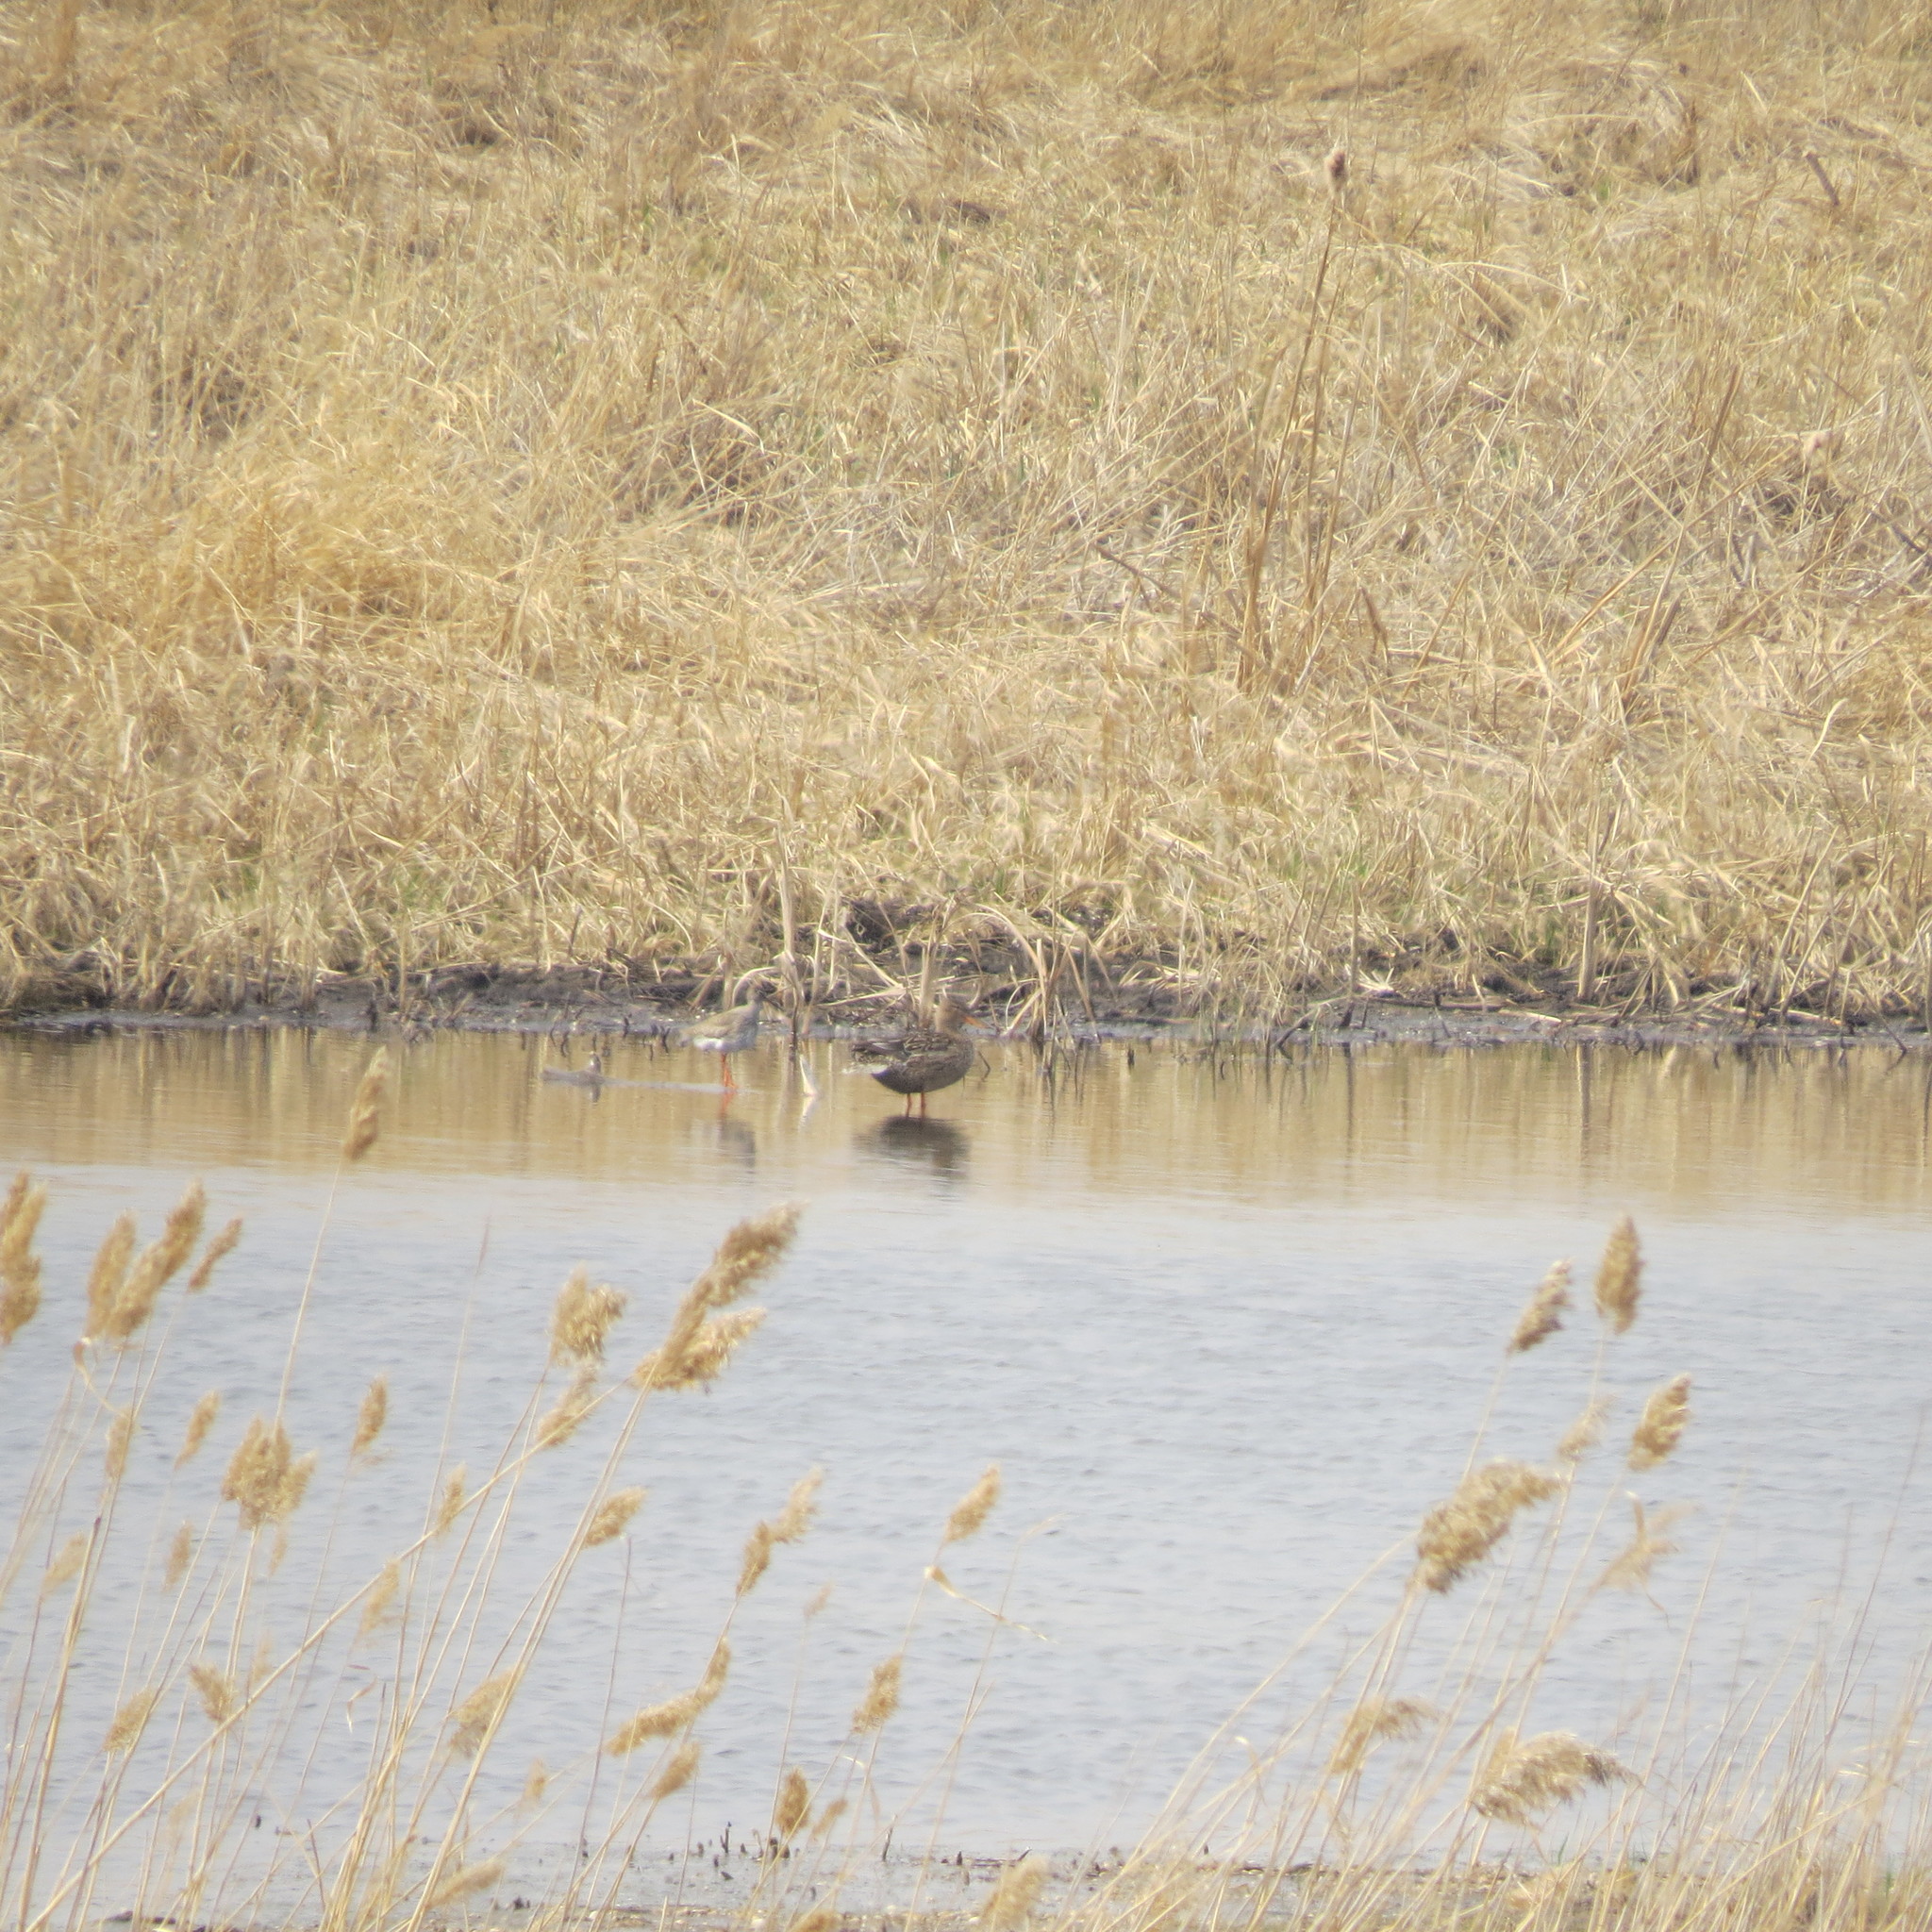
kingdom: Animalia
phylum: Chordata
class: Aves
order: Charadriiformes
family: Scolopacidae
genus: Tringa
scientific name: Tringa totanus
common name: Common redshank
